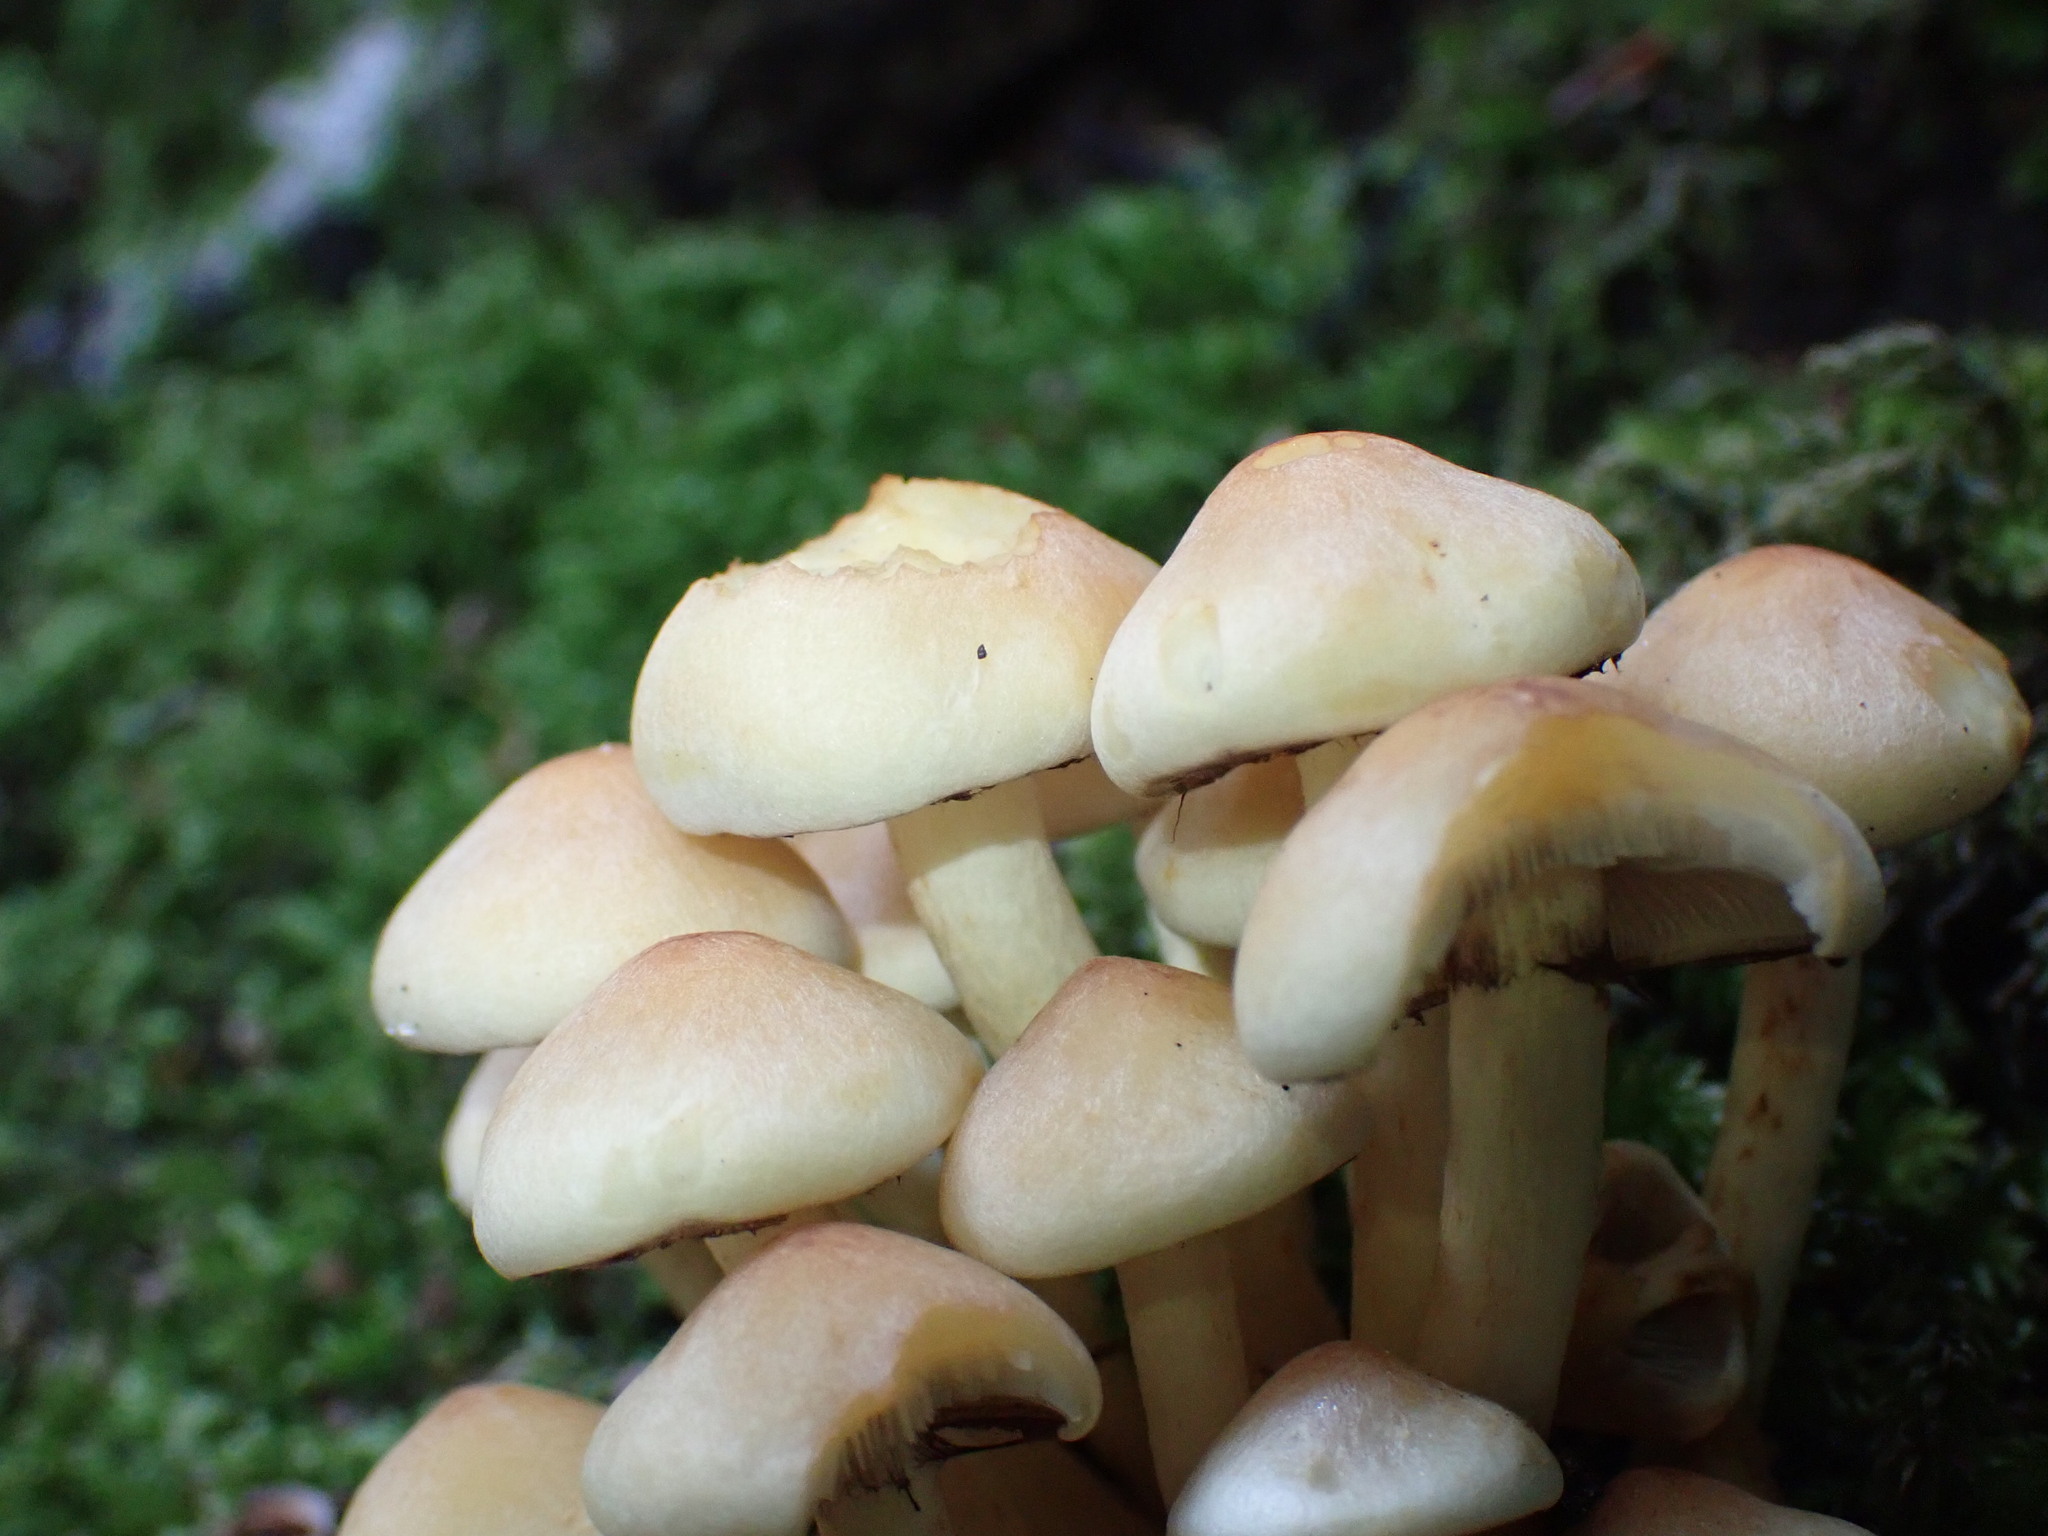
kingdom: Fungi
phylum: Basidiomycota
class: Agaricomycetes
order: Agaricales
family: Strophariaceae
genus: Hypholoma
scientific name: Hypholoma fasciculare
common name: Sulphur tuft
